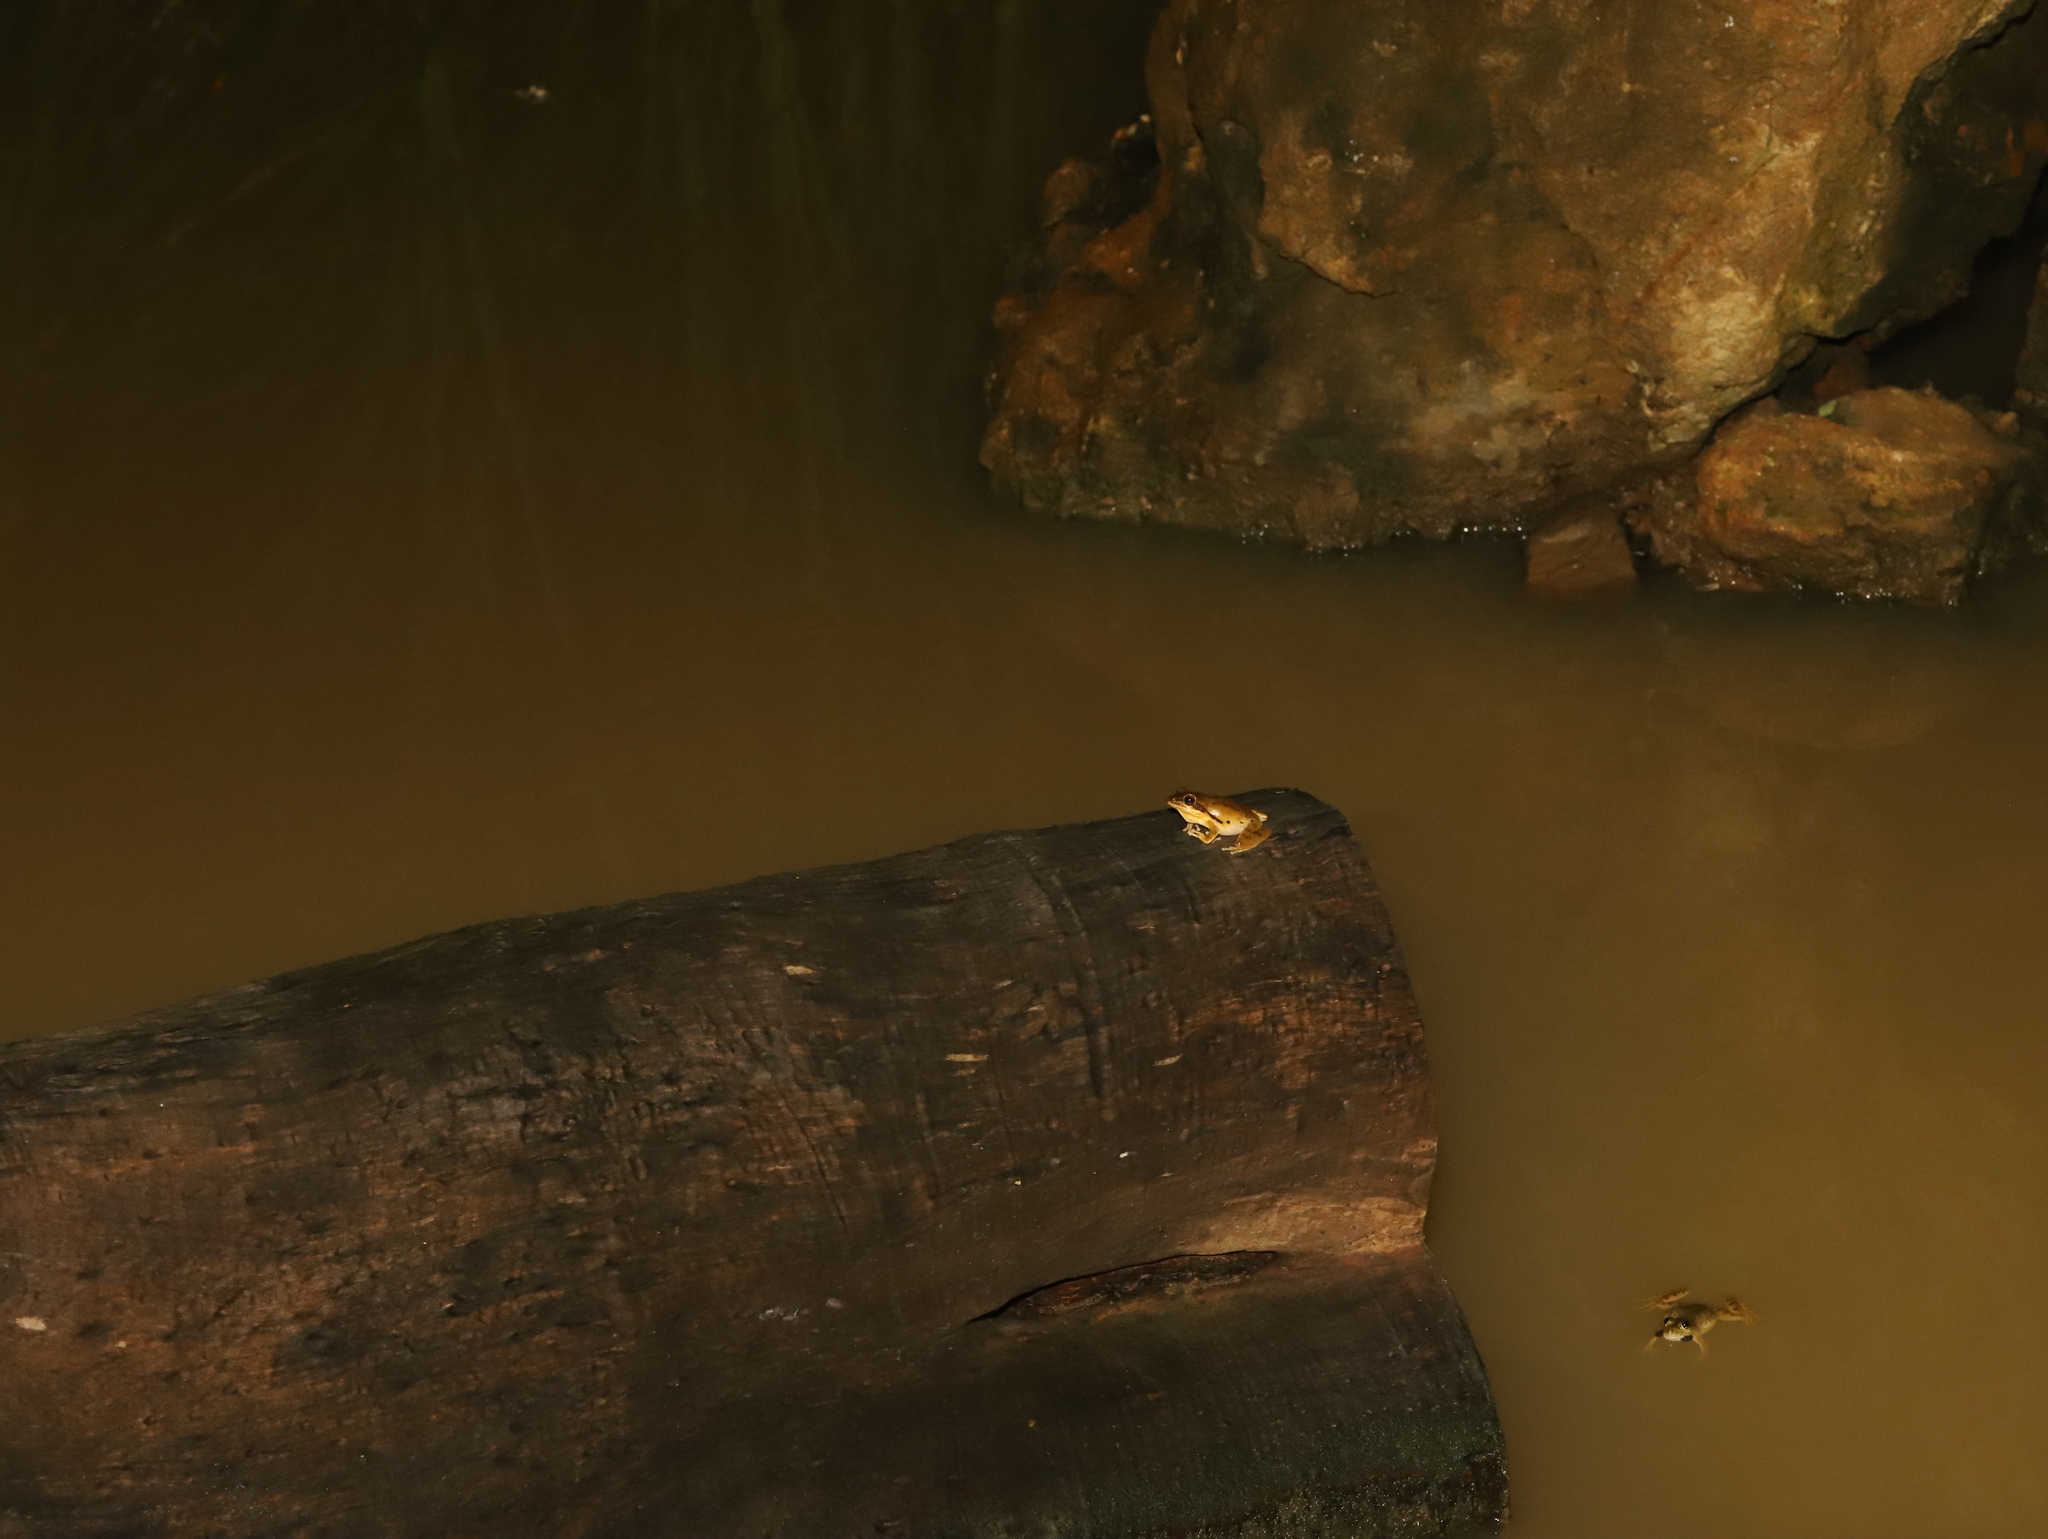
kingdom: Animalia
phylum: Chordata
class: Amphibia
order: Anura
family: Rhacophoridae
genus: Polypedates
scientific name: Polypedates maculatus
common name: Himalayan tree frog
